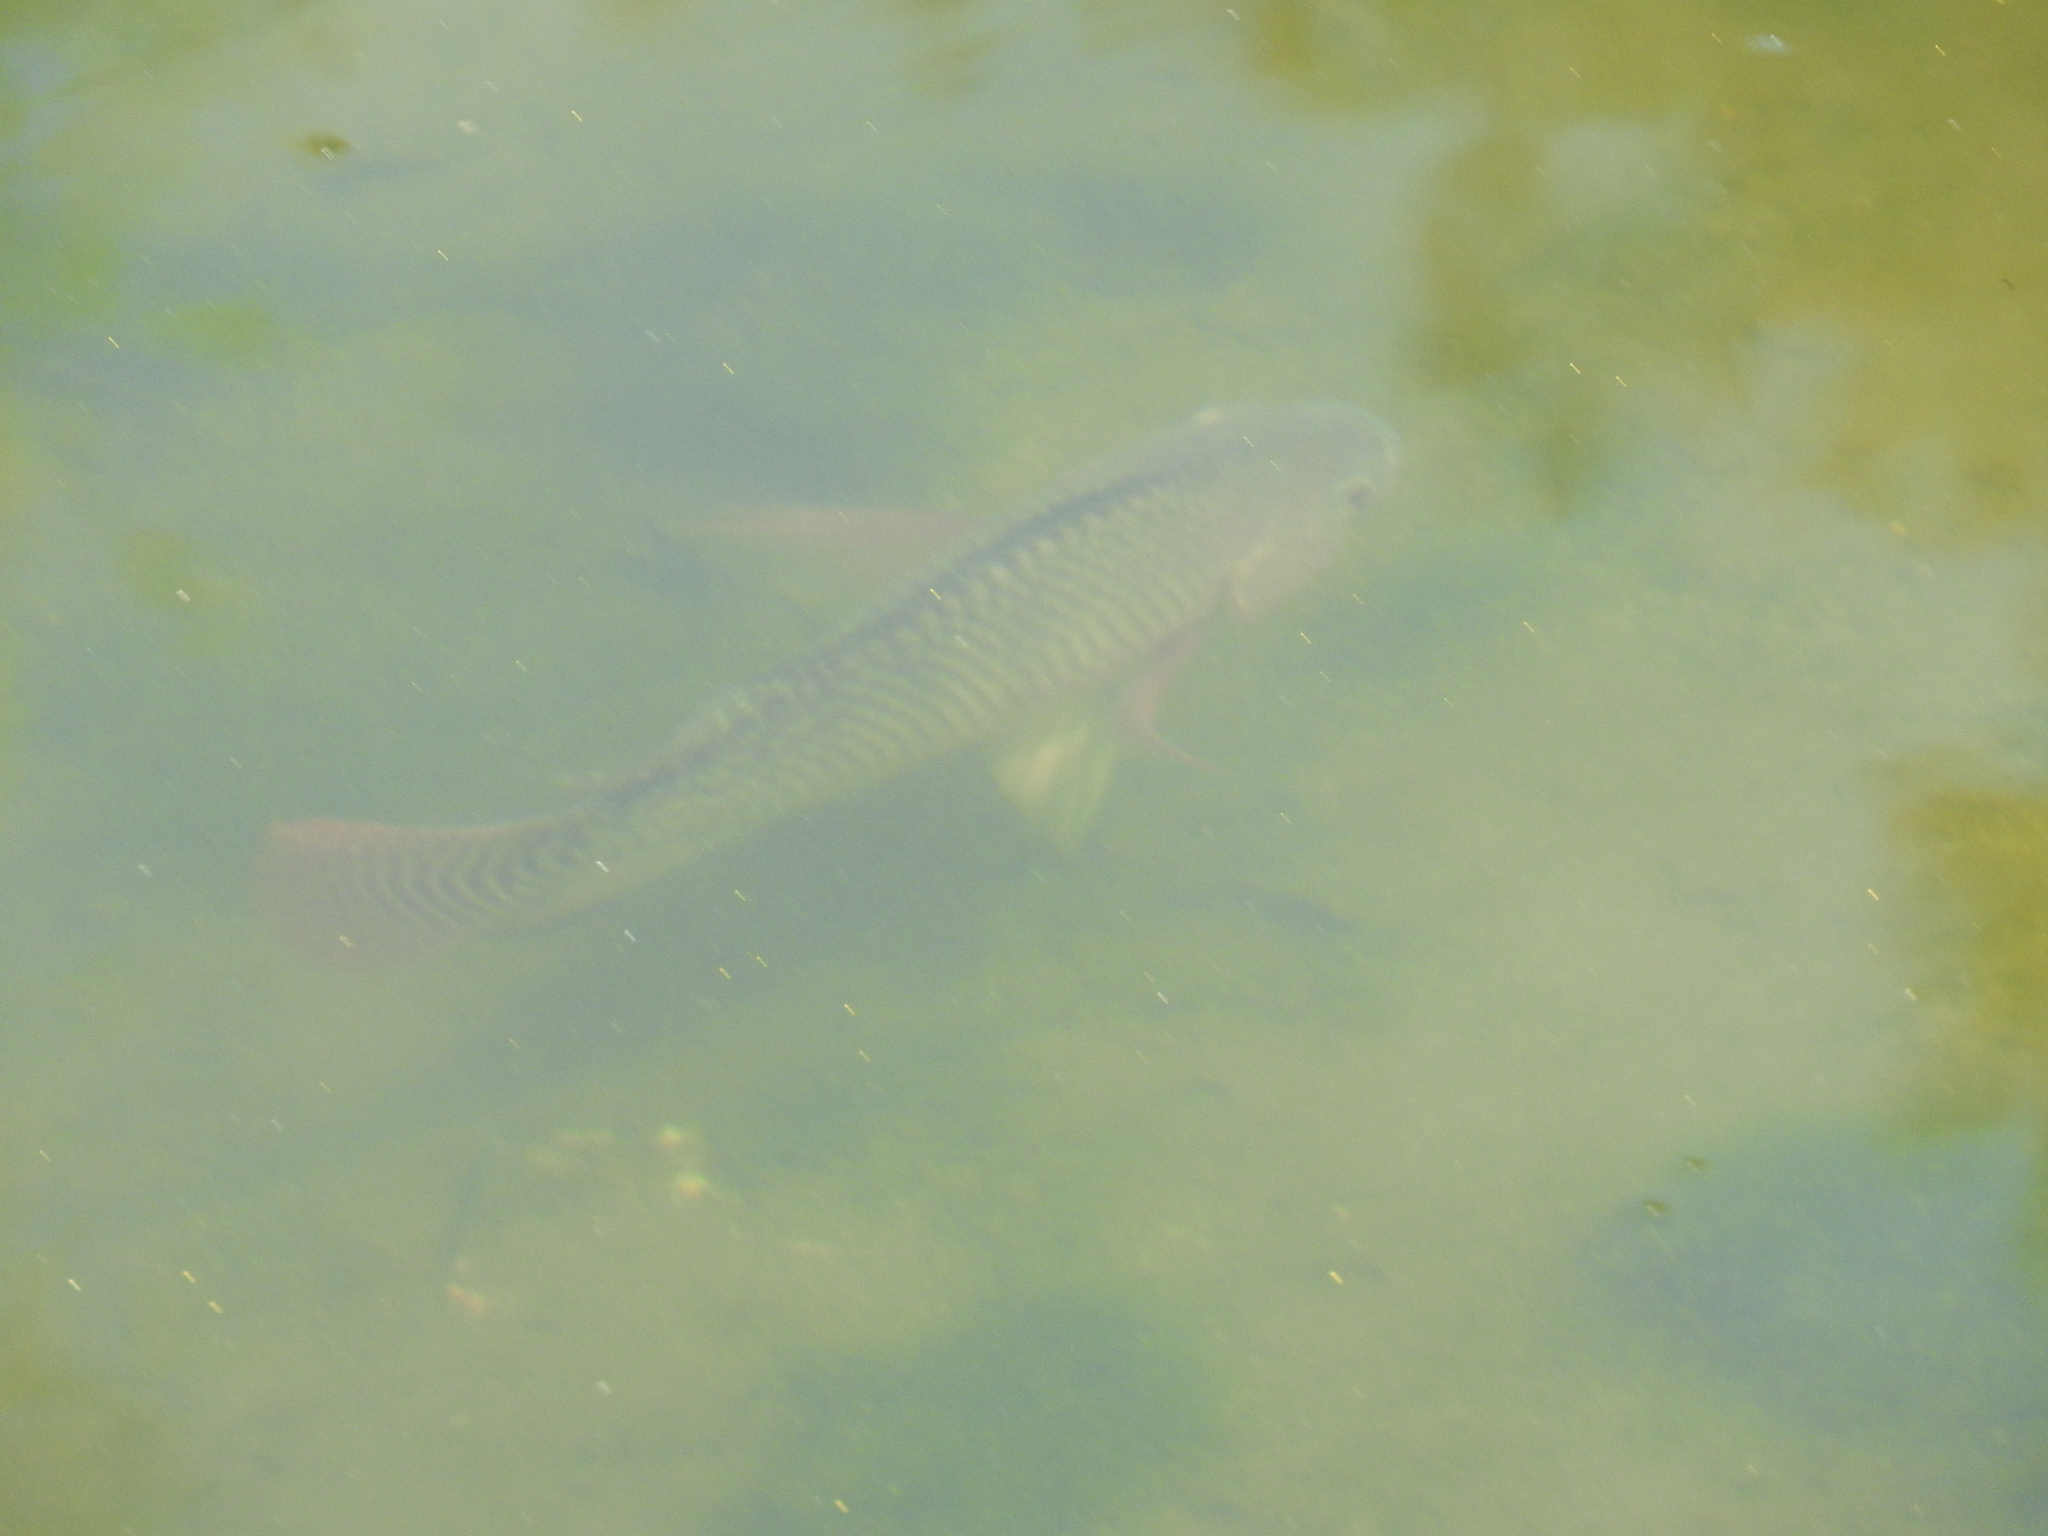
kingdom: Animalia
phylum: Chordata
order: Perciformes
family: Cichlidae
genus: Oreochromis
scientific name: Oreochromis niloticus
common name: Nile tilapia
